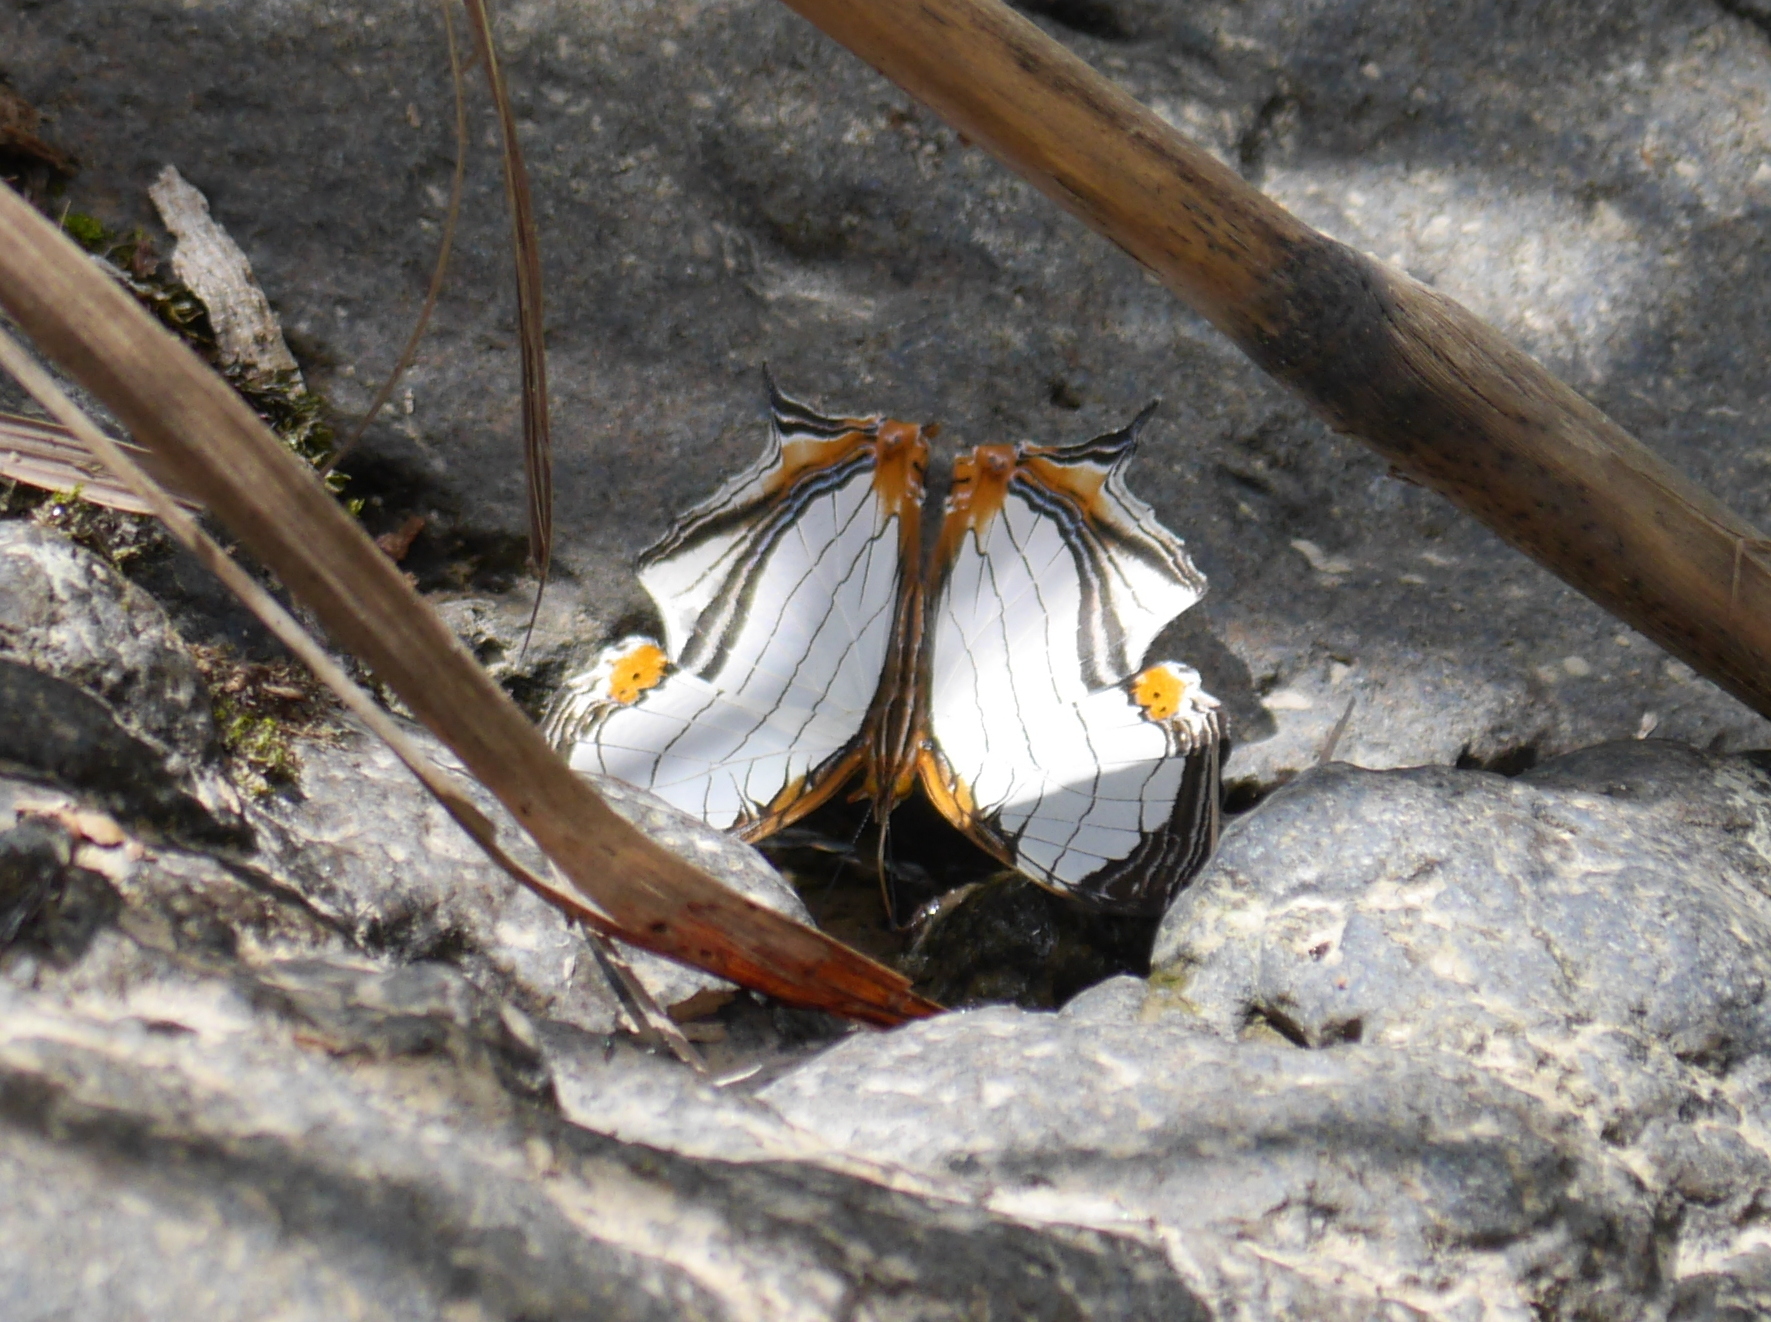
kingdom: Animalia
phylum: Arthropoda
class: Insecta
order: Lepidoptera
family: Nymphalidae
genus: Cyrestis
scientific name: Cyrestis nivea
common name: Straight line mapwing
